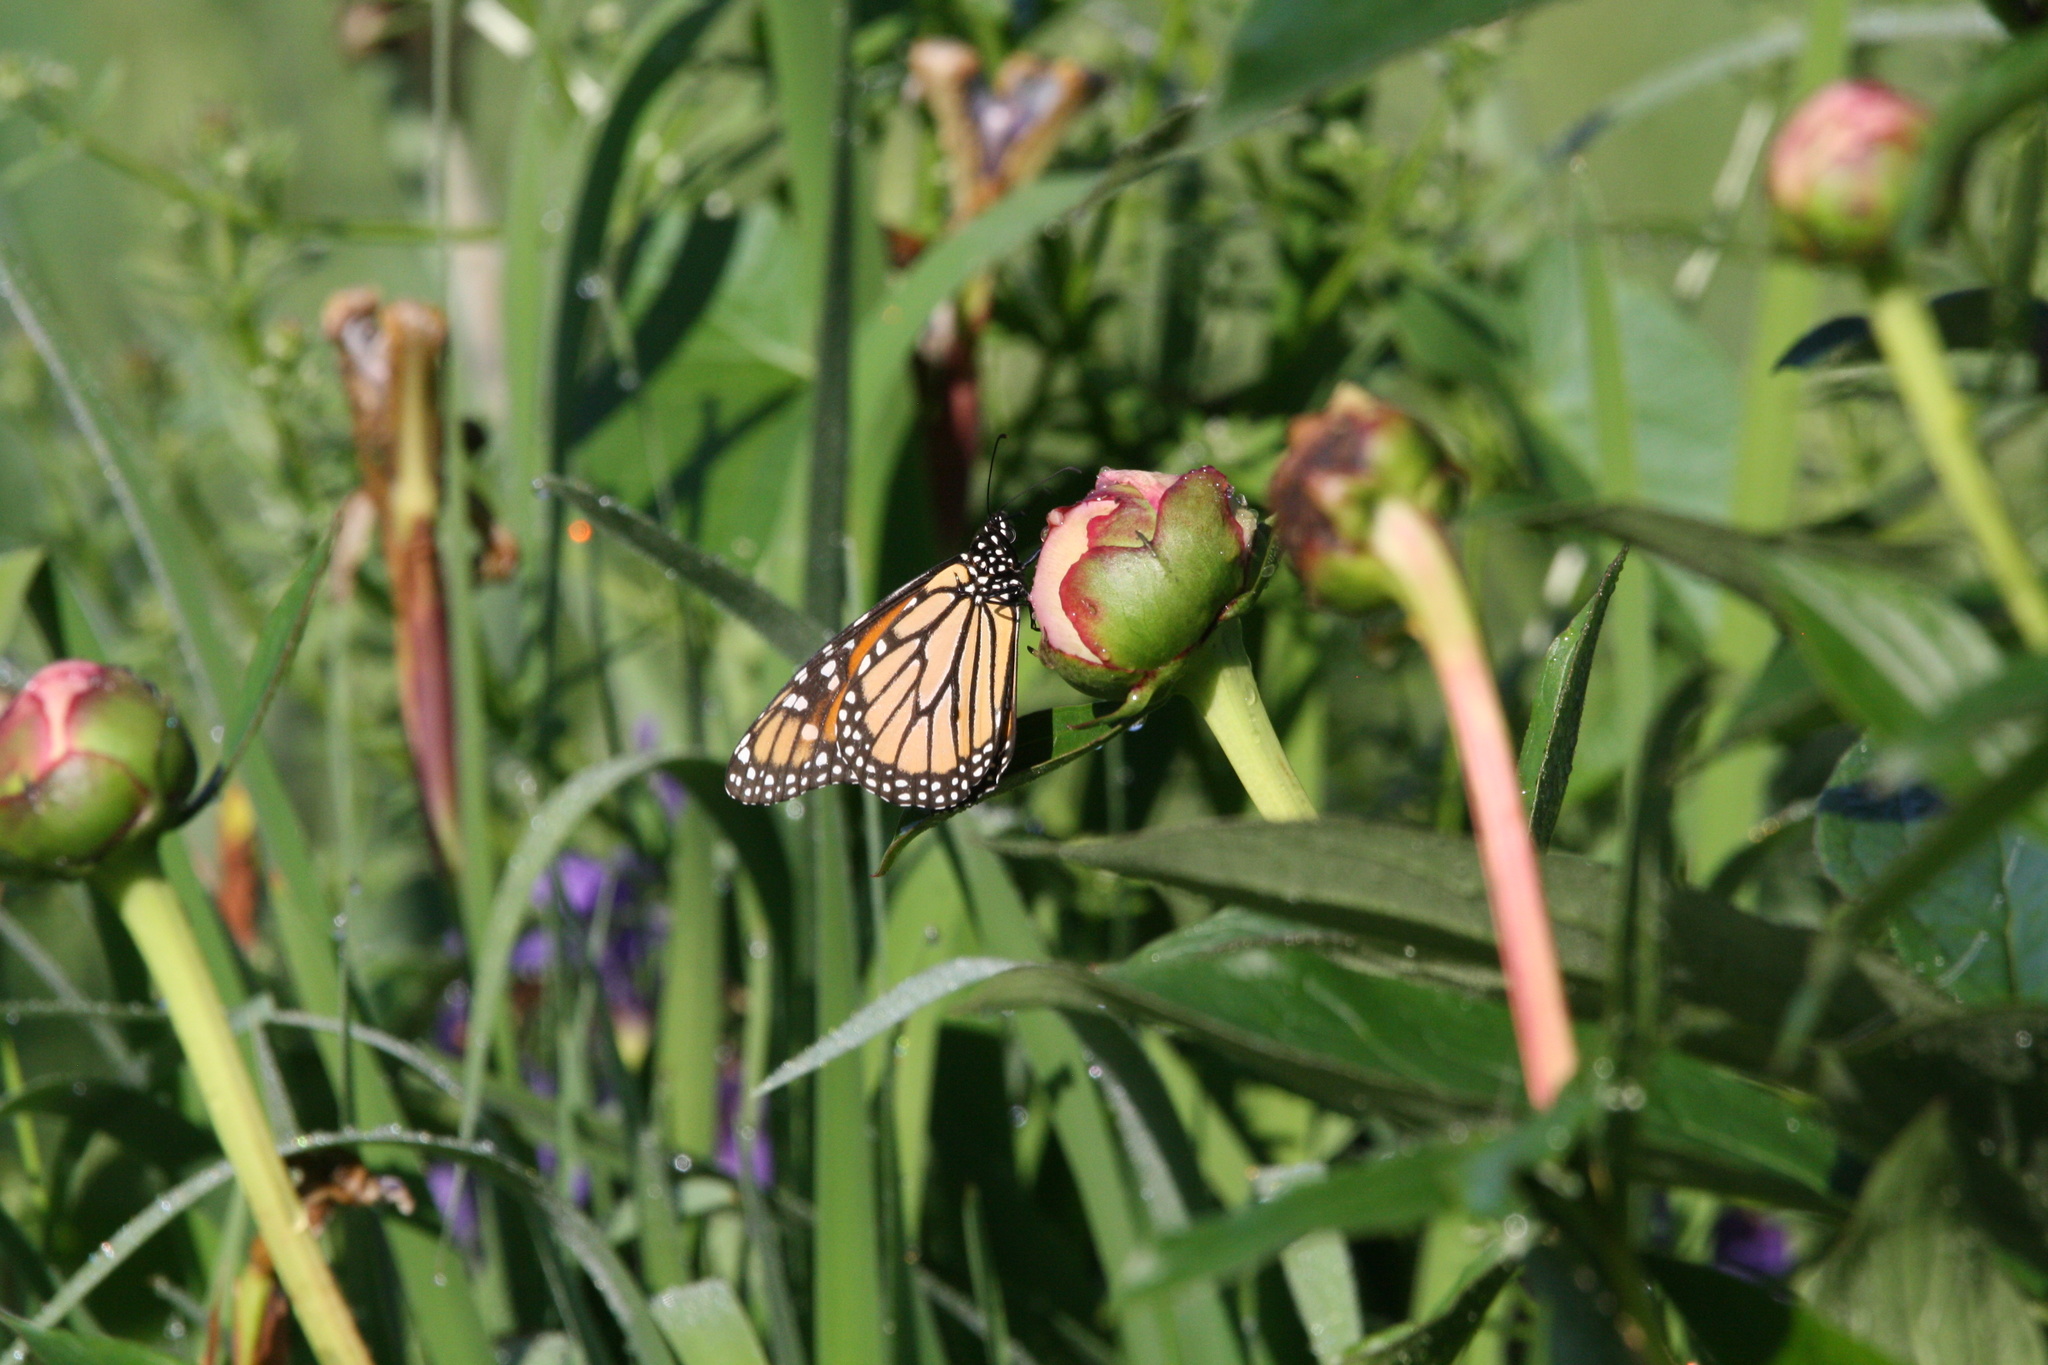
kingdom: Animalia
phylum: Arthropoda
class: Insecta
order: Lepidoptera
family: Nymphalidae
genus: Danaus
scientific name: Danaus plexippus
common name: Monarch
